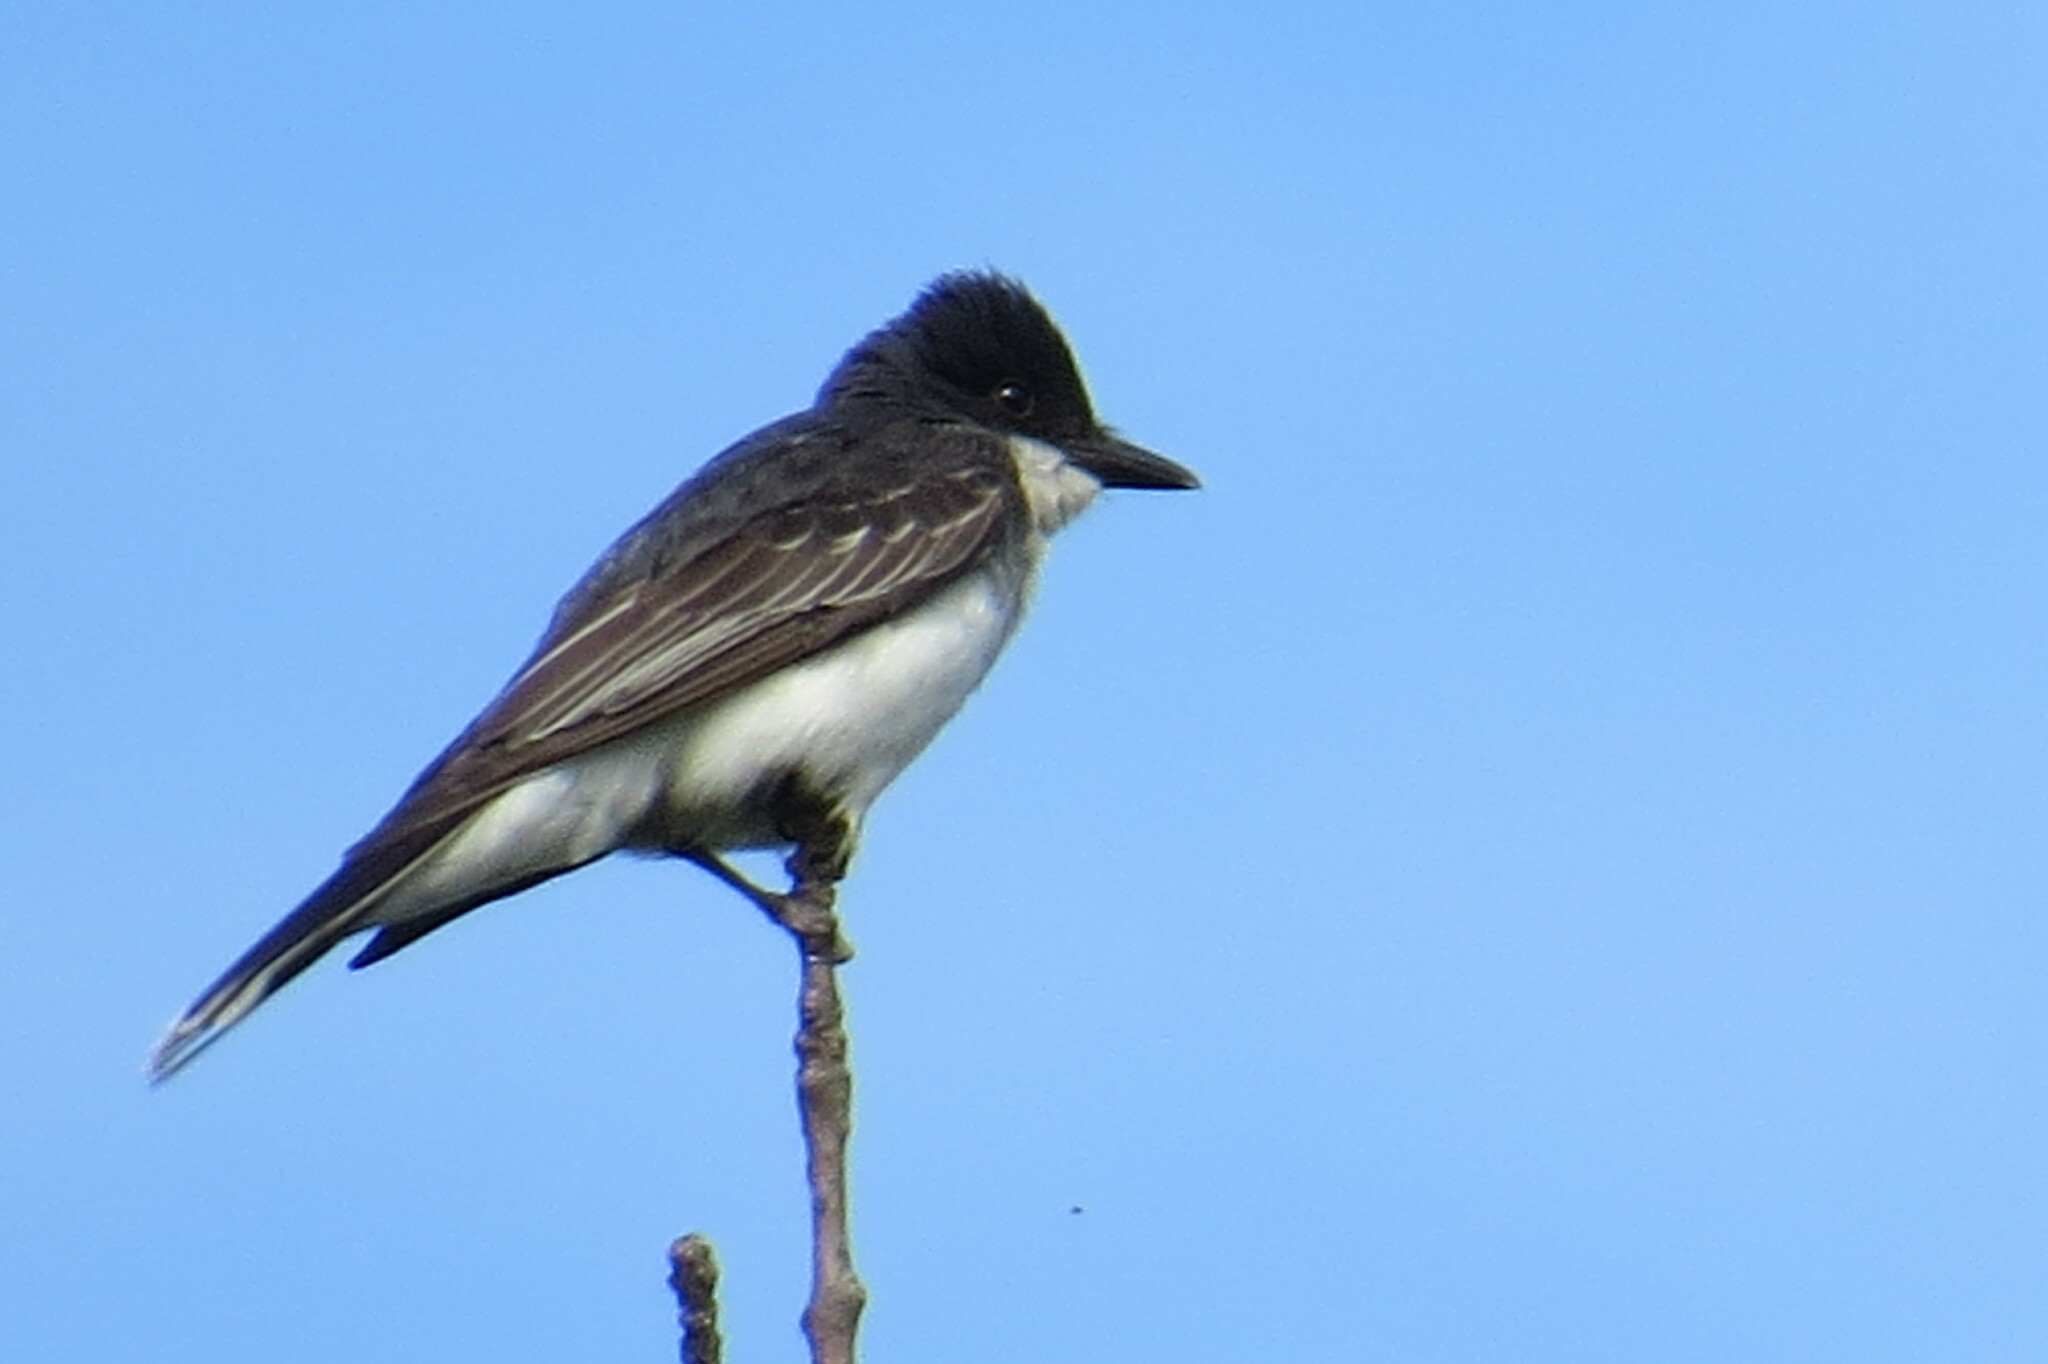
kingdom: Animalia
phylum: Chordata
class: Aves
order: Passeriformes
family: Tyrannidae
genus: Tyrannus
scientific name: Tyrannus tyrannus
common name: Eastern kingbird
